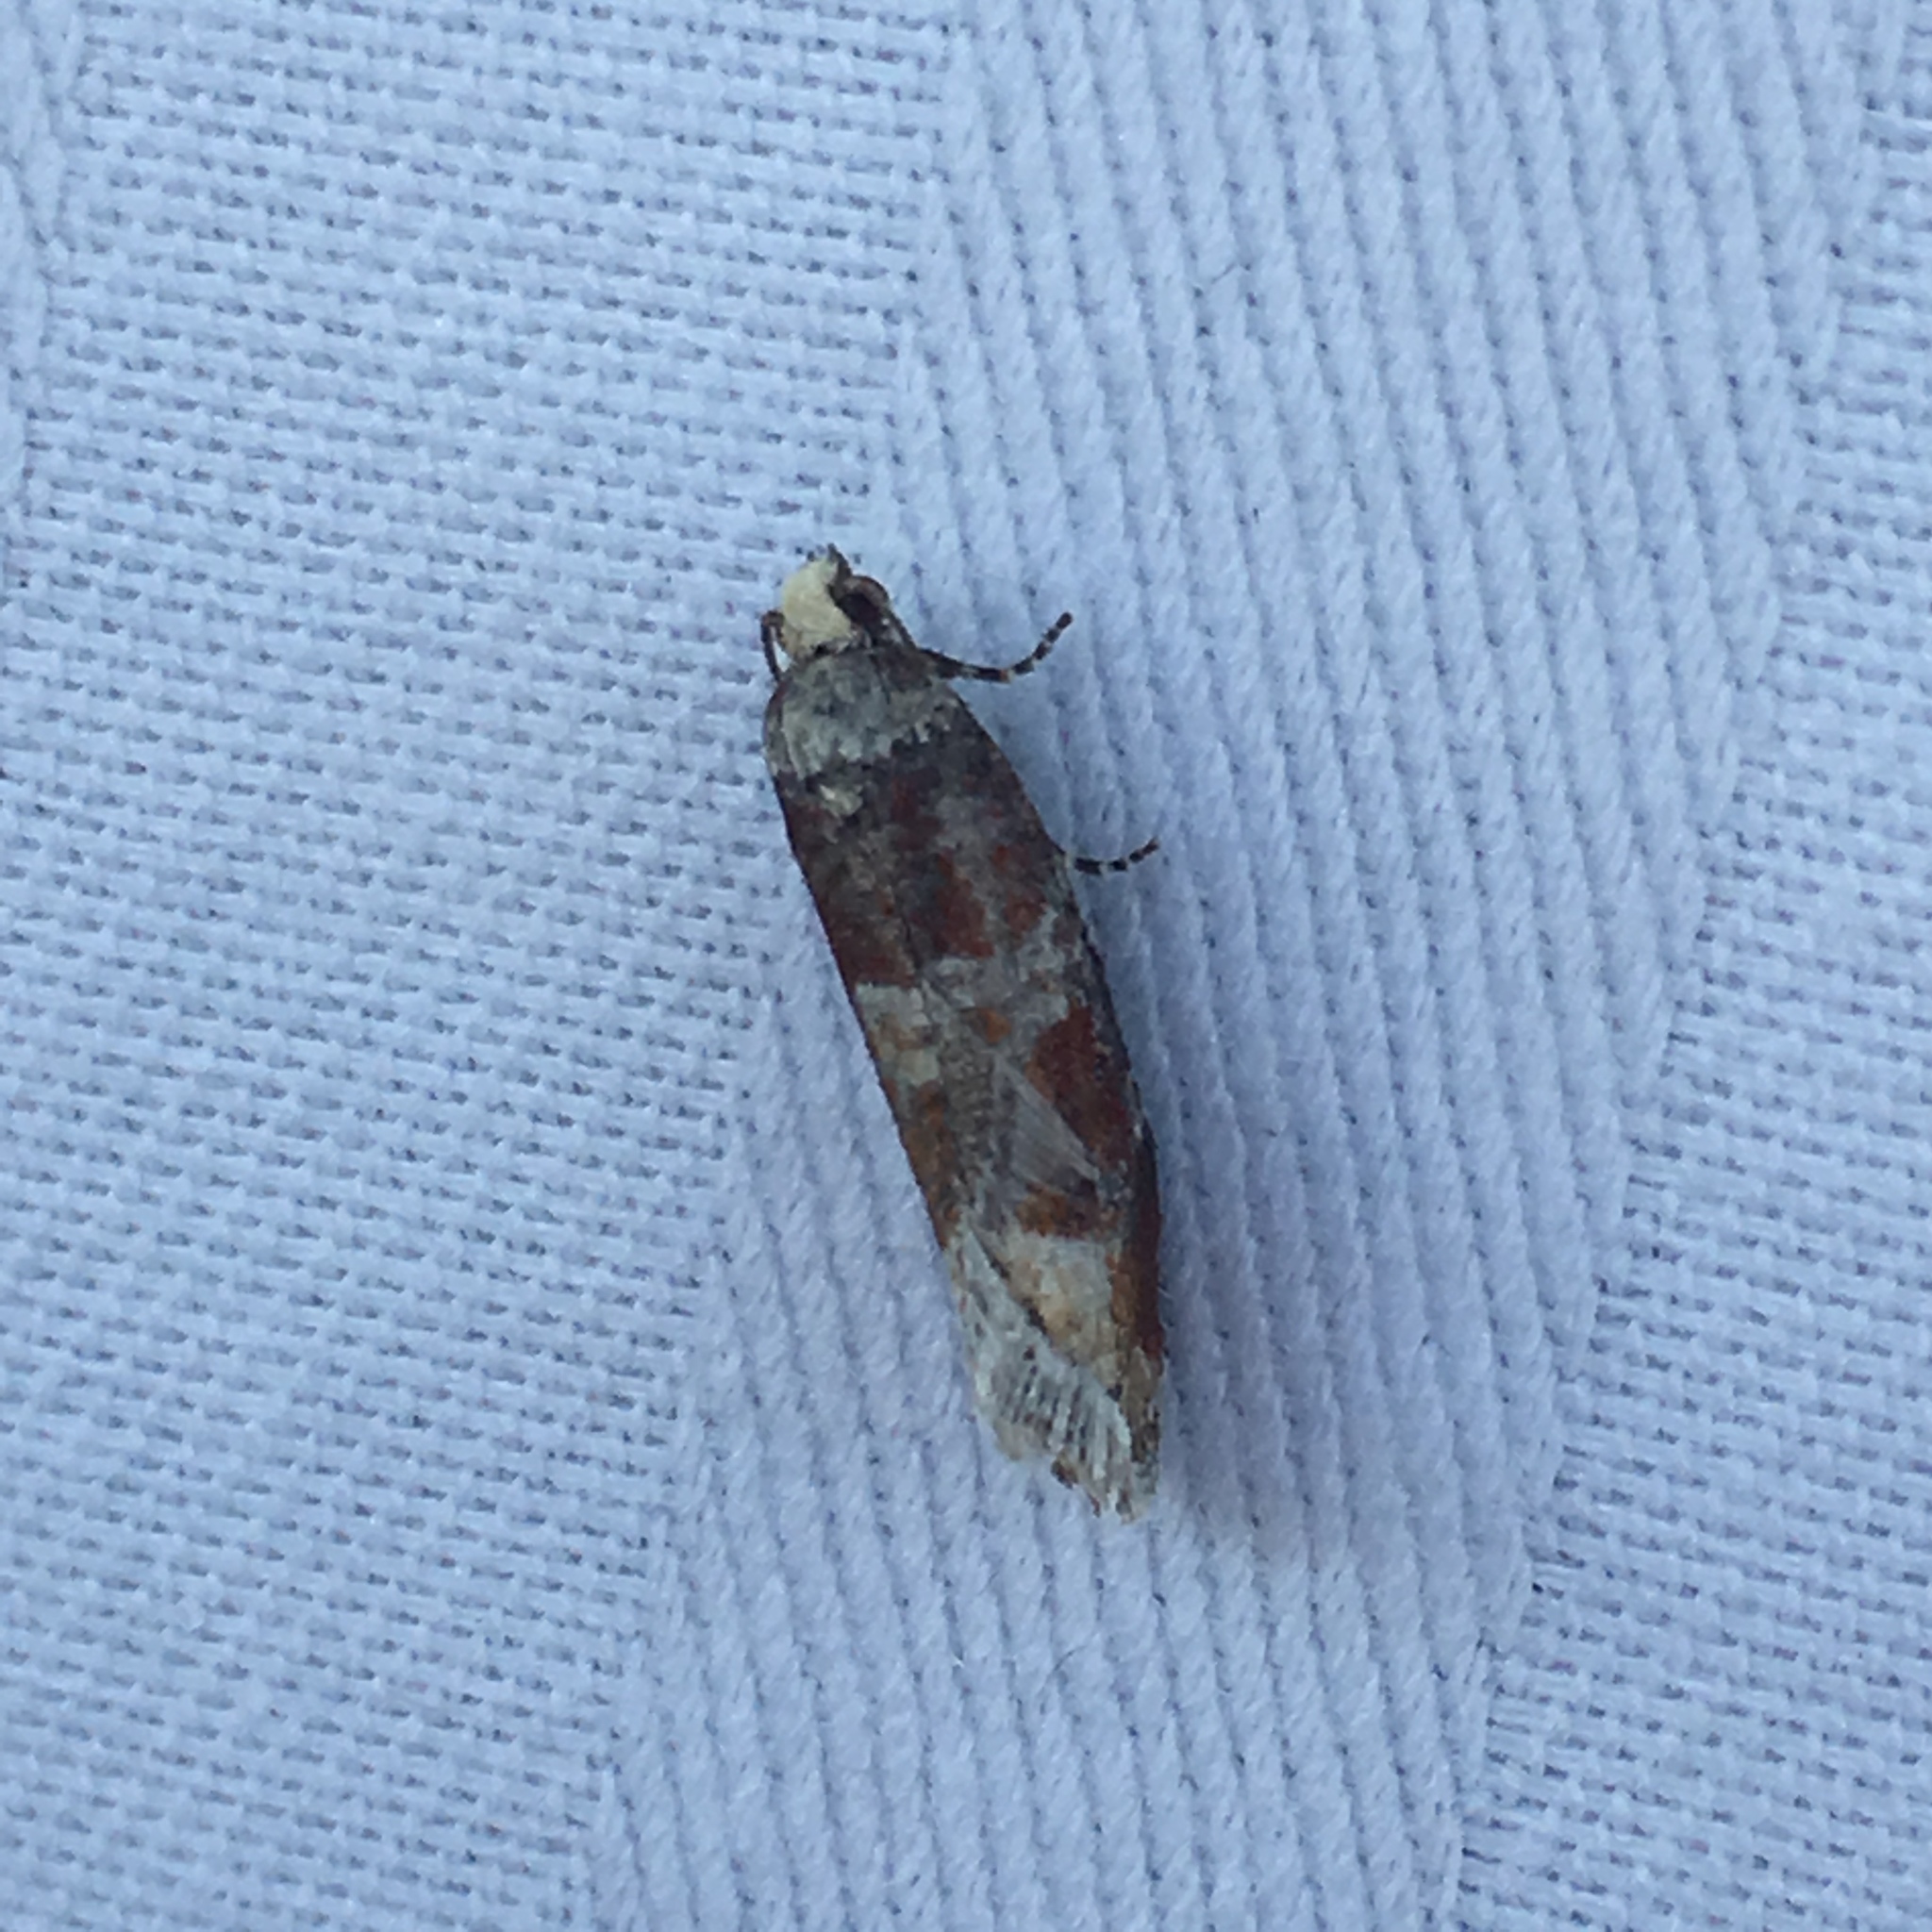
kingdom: Animalia
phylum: Arthropoda
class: Insecta
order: Lepidoptera
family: Tortricidae
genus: Eucopina
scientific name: Eucopina sonomana
